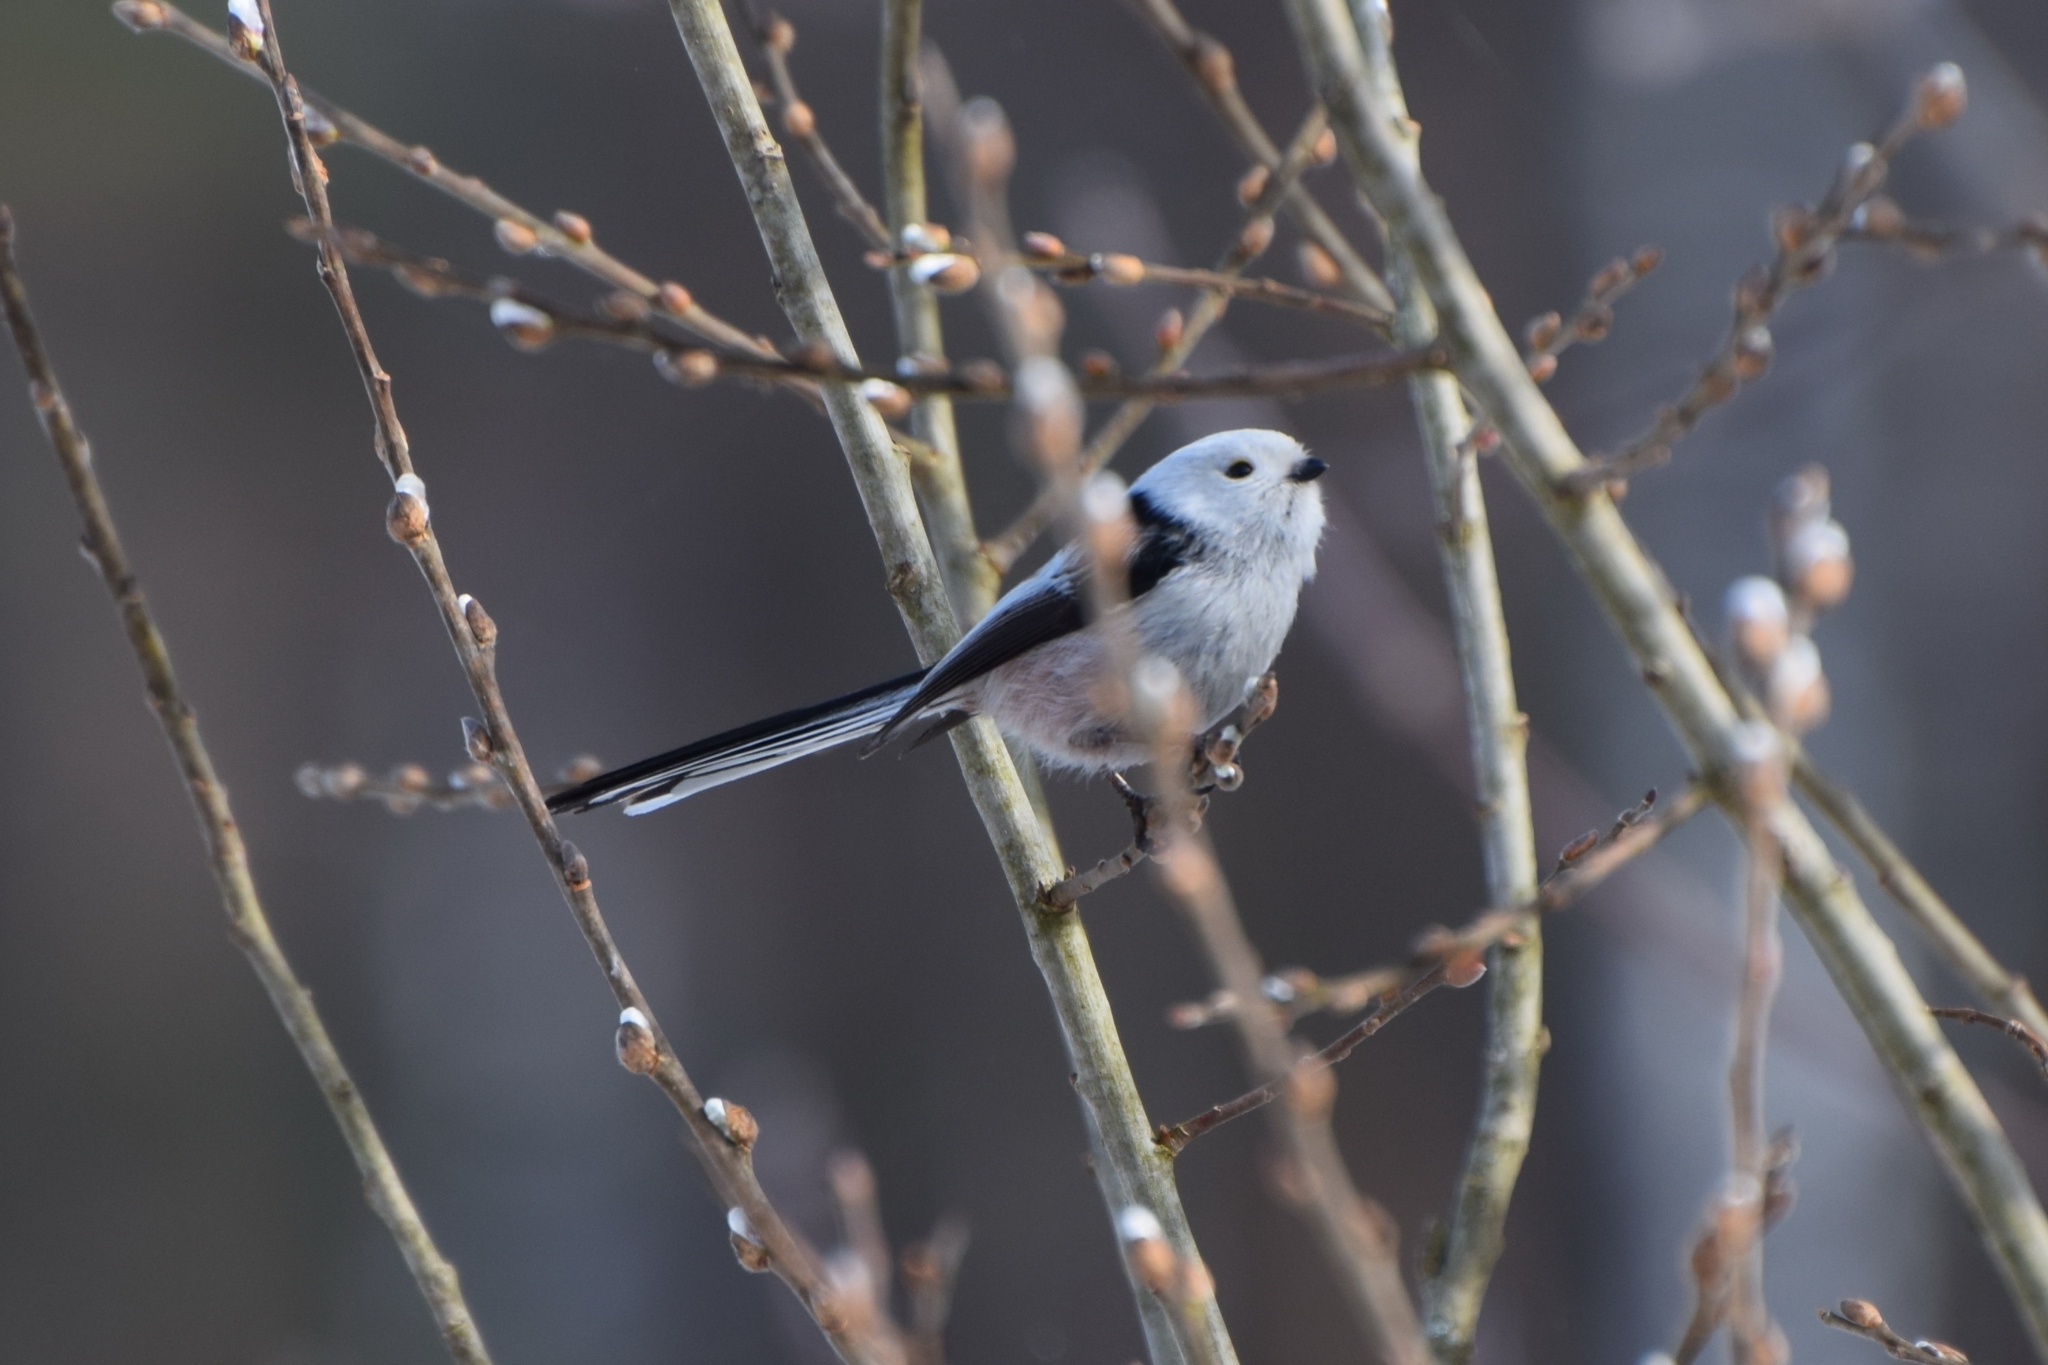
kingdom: Animalia
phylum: Chordata
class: Aves
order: Passeriformes
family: Aegithalidae
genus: Aegithalos
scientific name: Aegithalos caudatus
